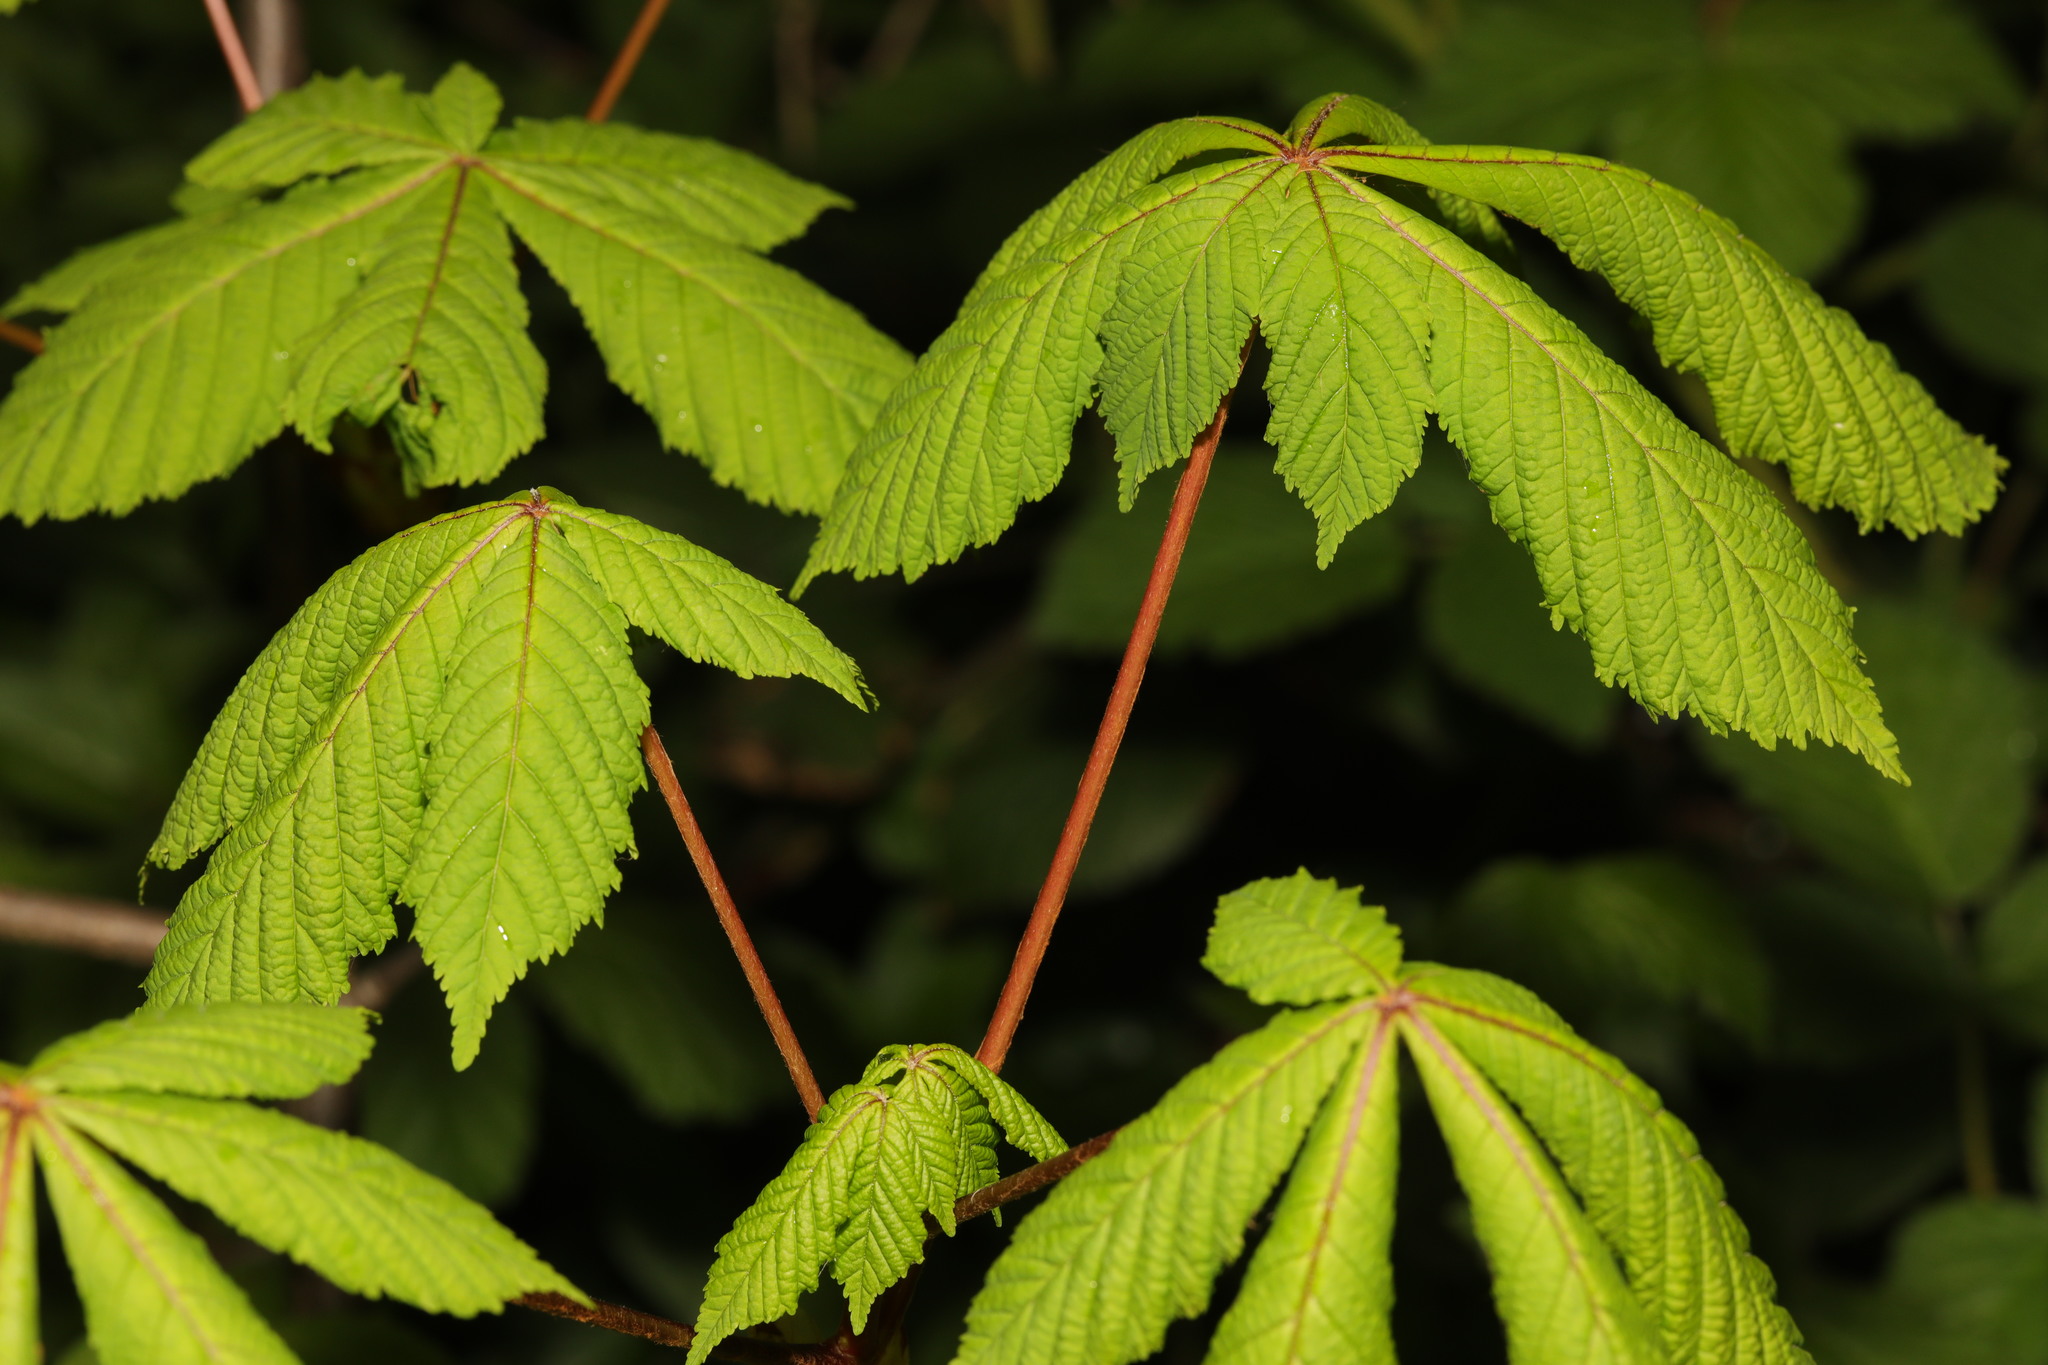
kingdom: Plantae
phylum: Tracheophyta
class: Magnoliopsida
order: Sapindales
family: Sapindaceae
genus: Aesculus
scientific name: Aesculus hippocastanum
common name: Horse-chestnut
